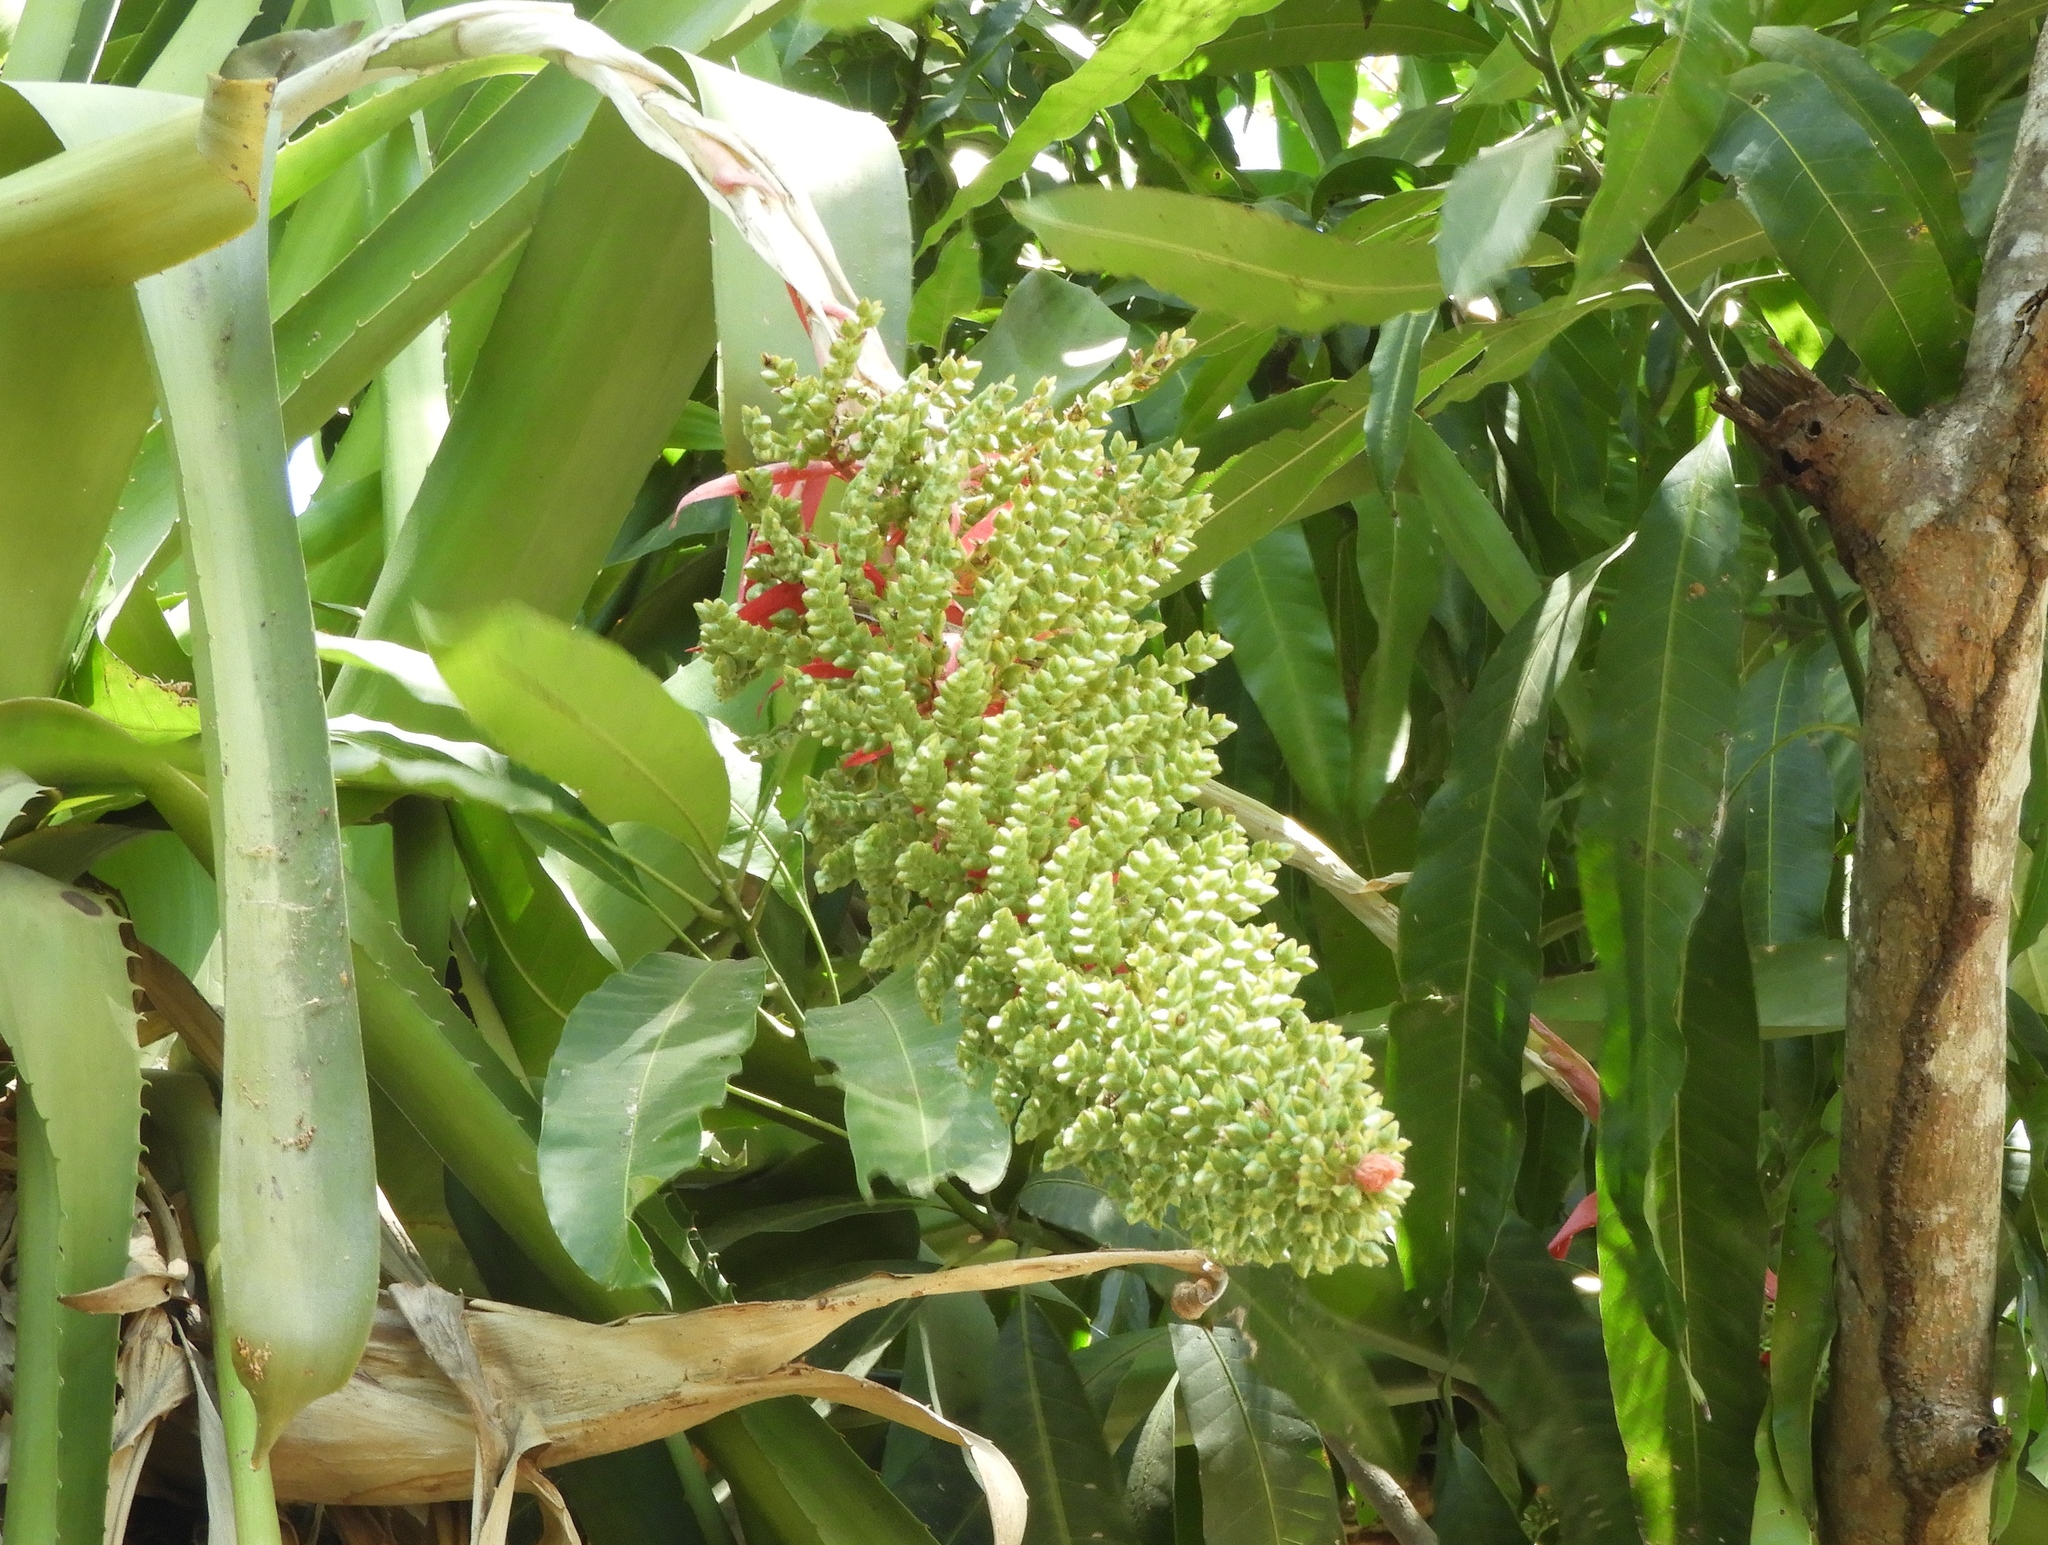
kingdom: Plantae
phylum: Tracheophyta
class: Liliopsida
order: Poales
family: Bromeliaceae
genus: Aechmea
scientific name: Aechmea bracteata
